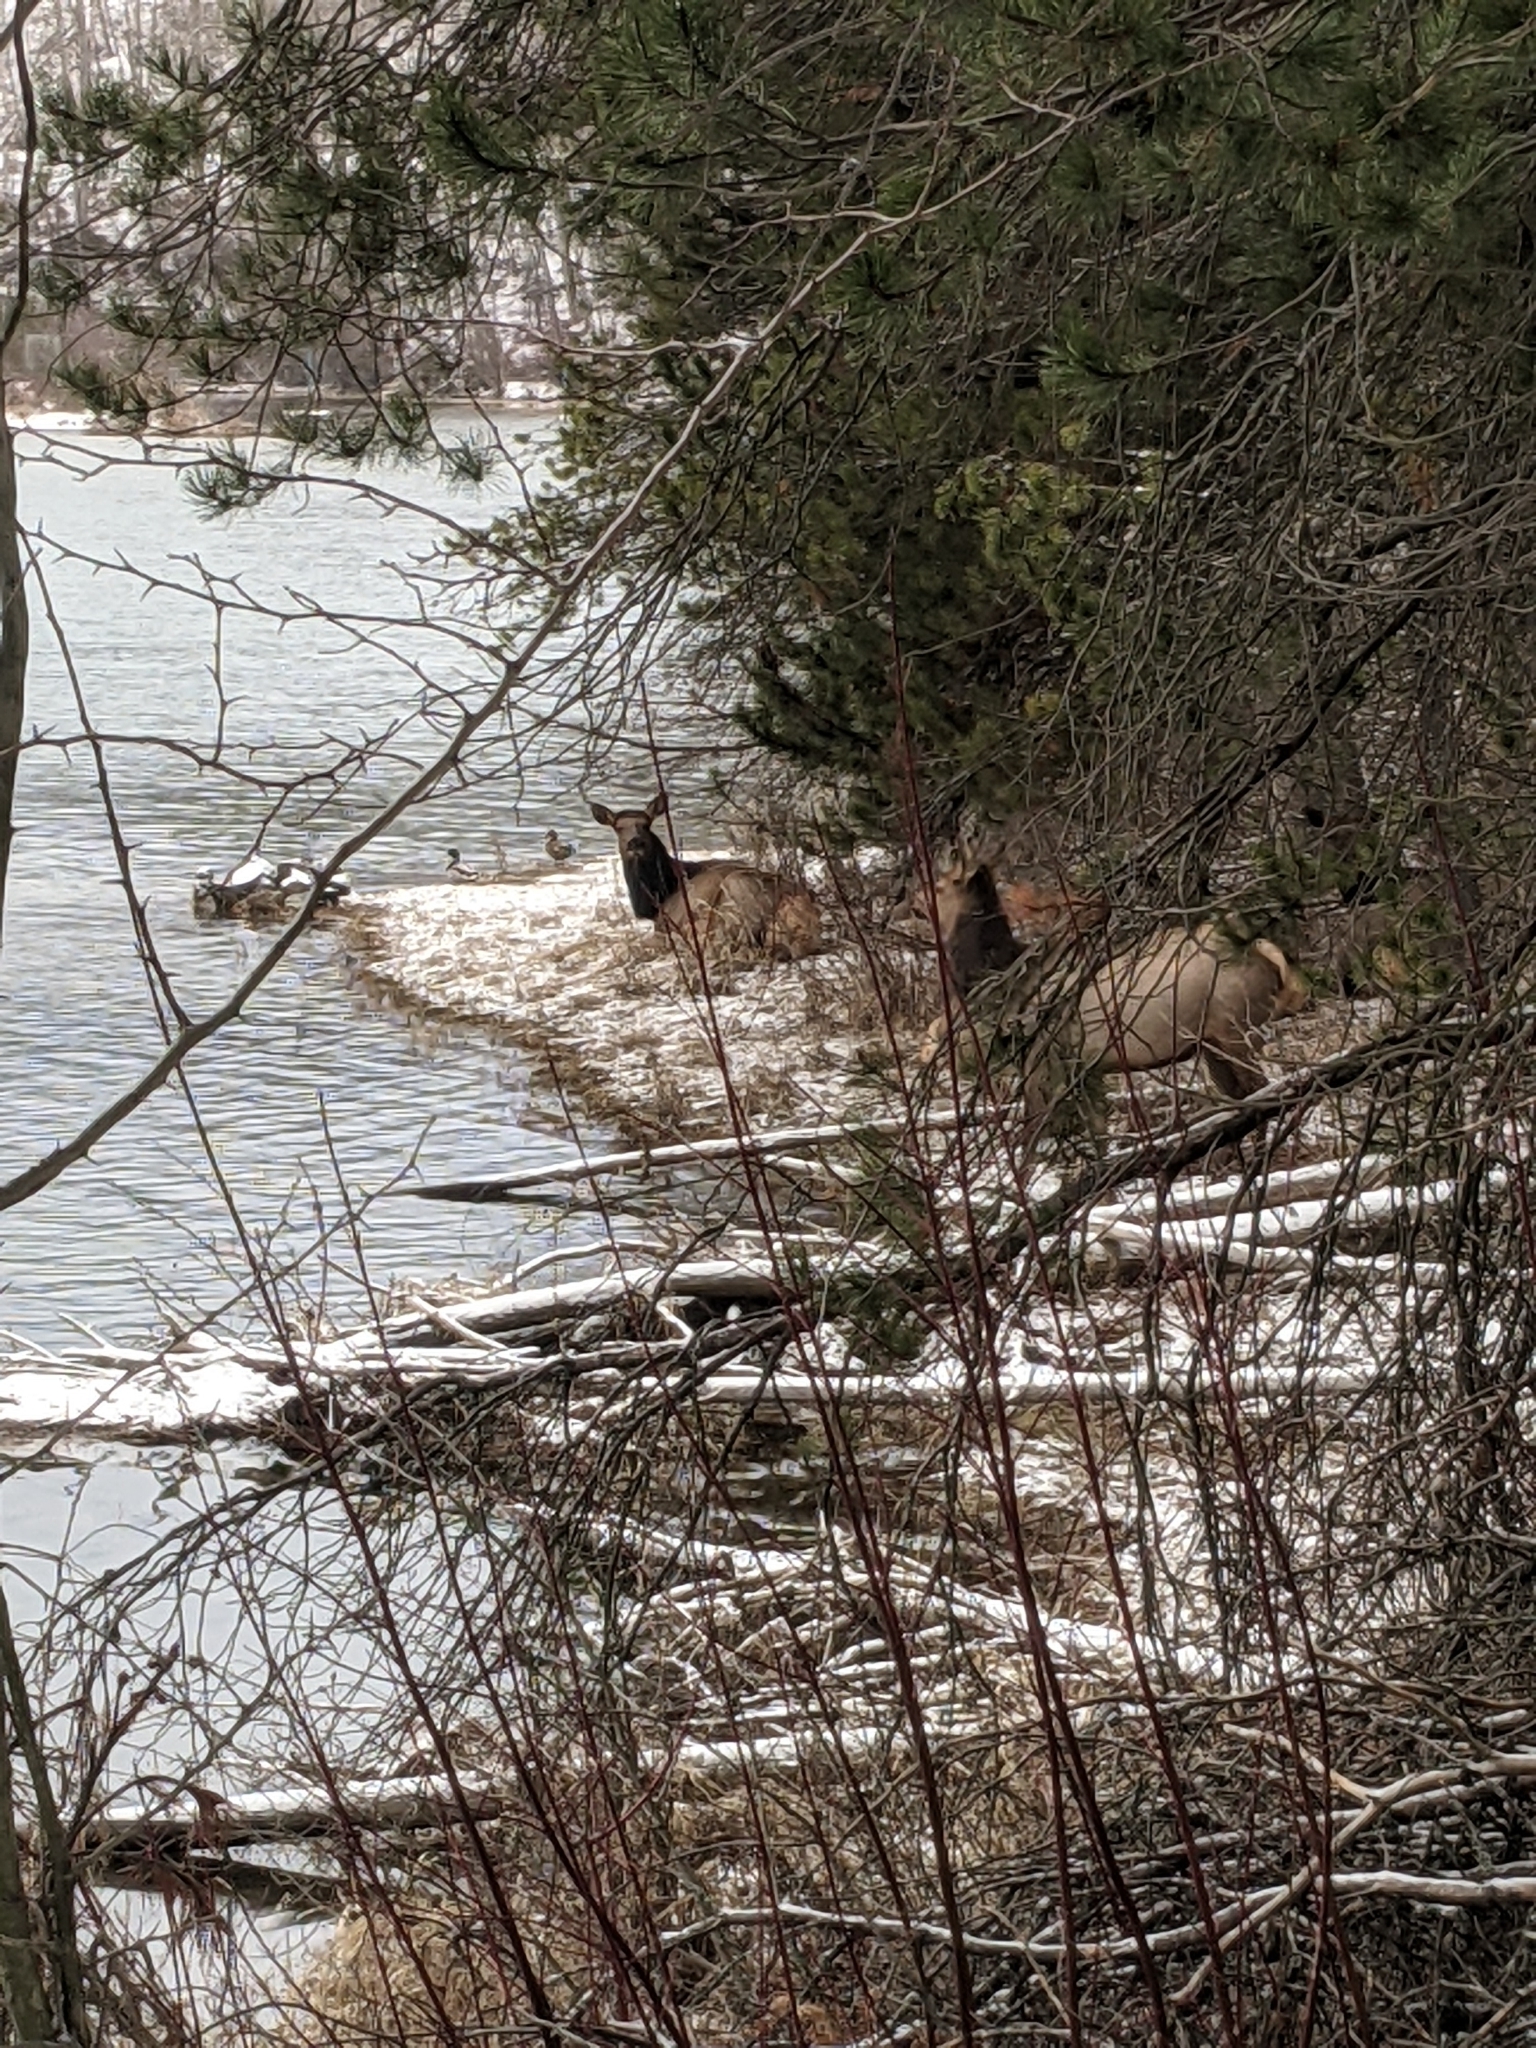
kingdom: Animalia
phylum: Chordata
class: Mammalia
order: Artiodactyla
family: Cervidae
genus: Cervus
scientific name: Cervus elaphus
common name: Red deer
